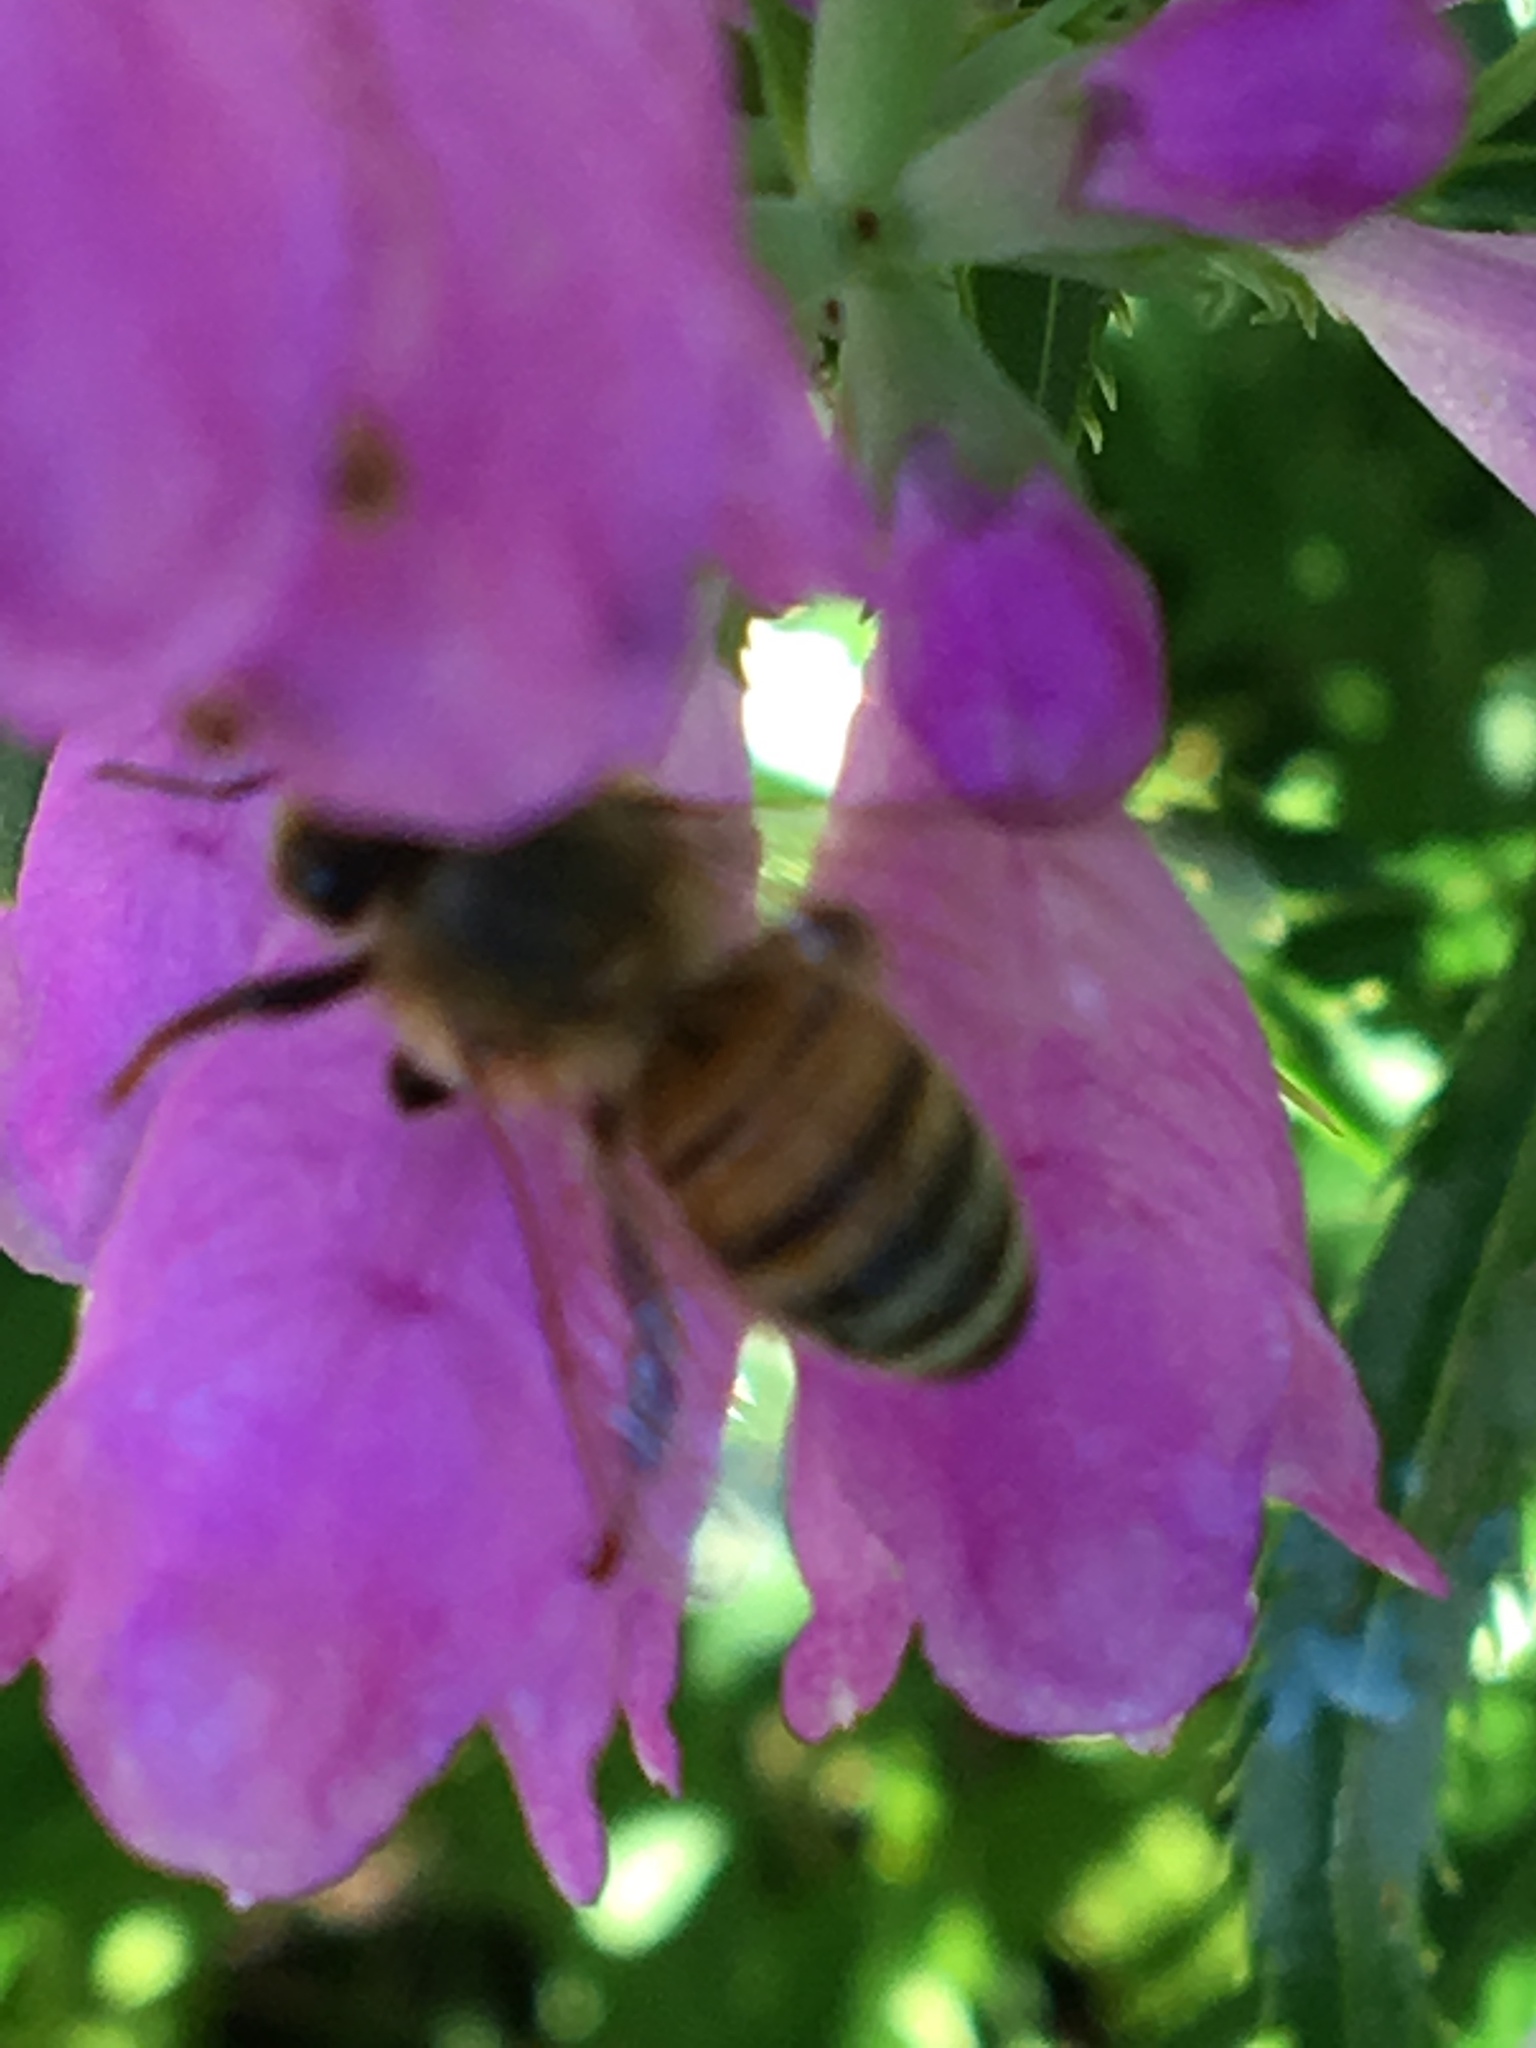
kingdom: Animalia
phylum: Arthropoda
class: Insecta
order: Hymenoptera
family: Apidae
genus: Apis
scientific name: Apis mellifera
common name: Honey bee
